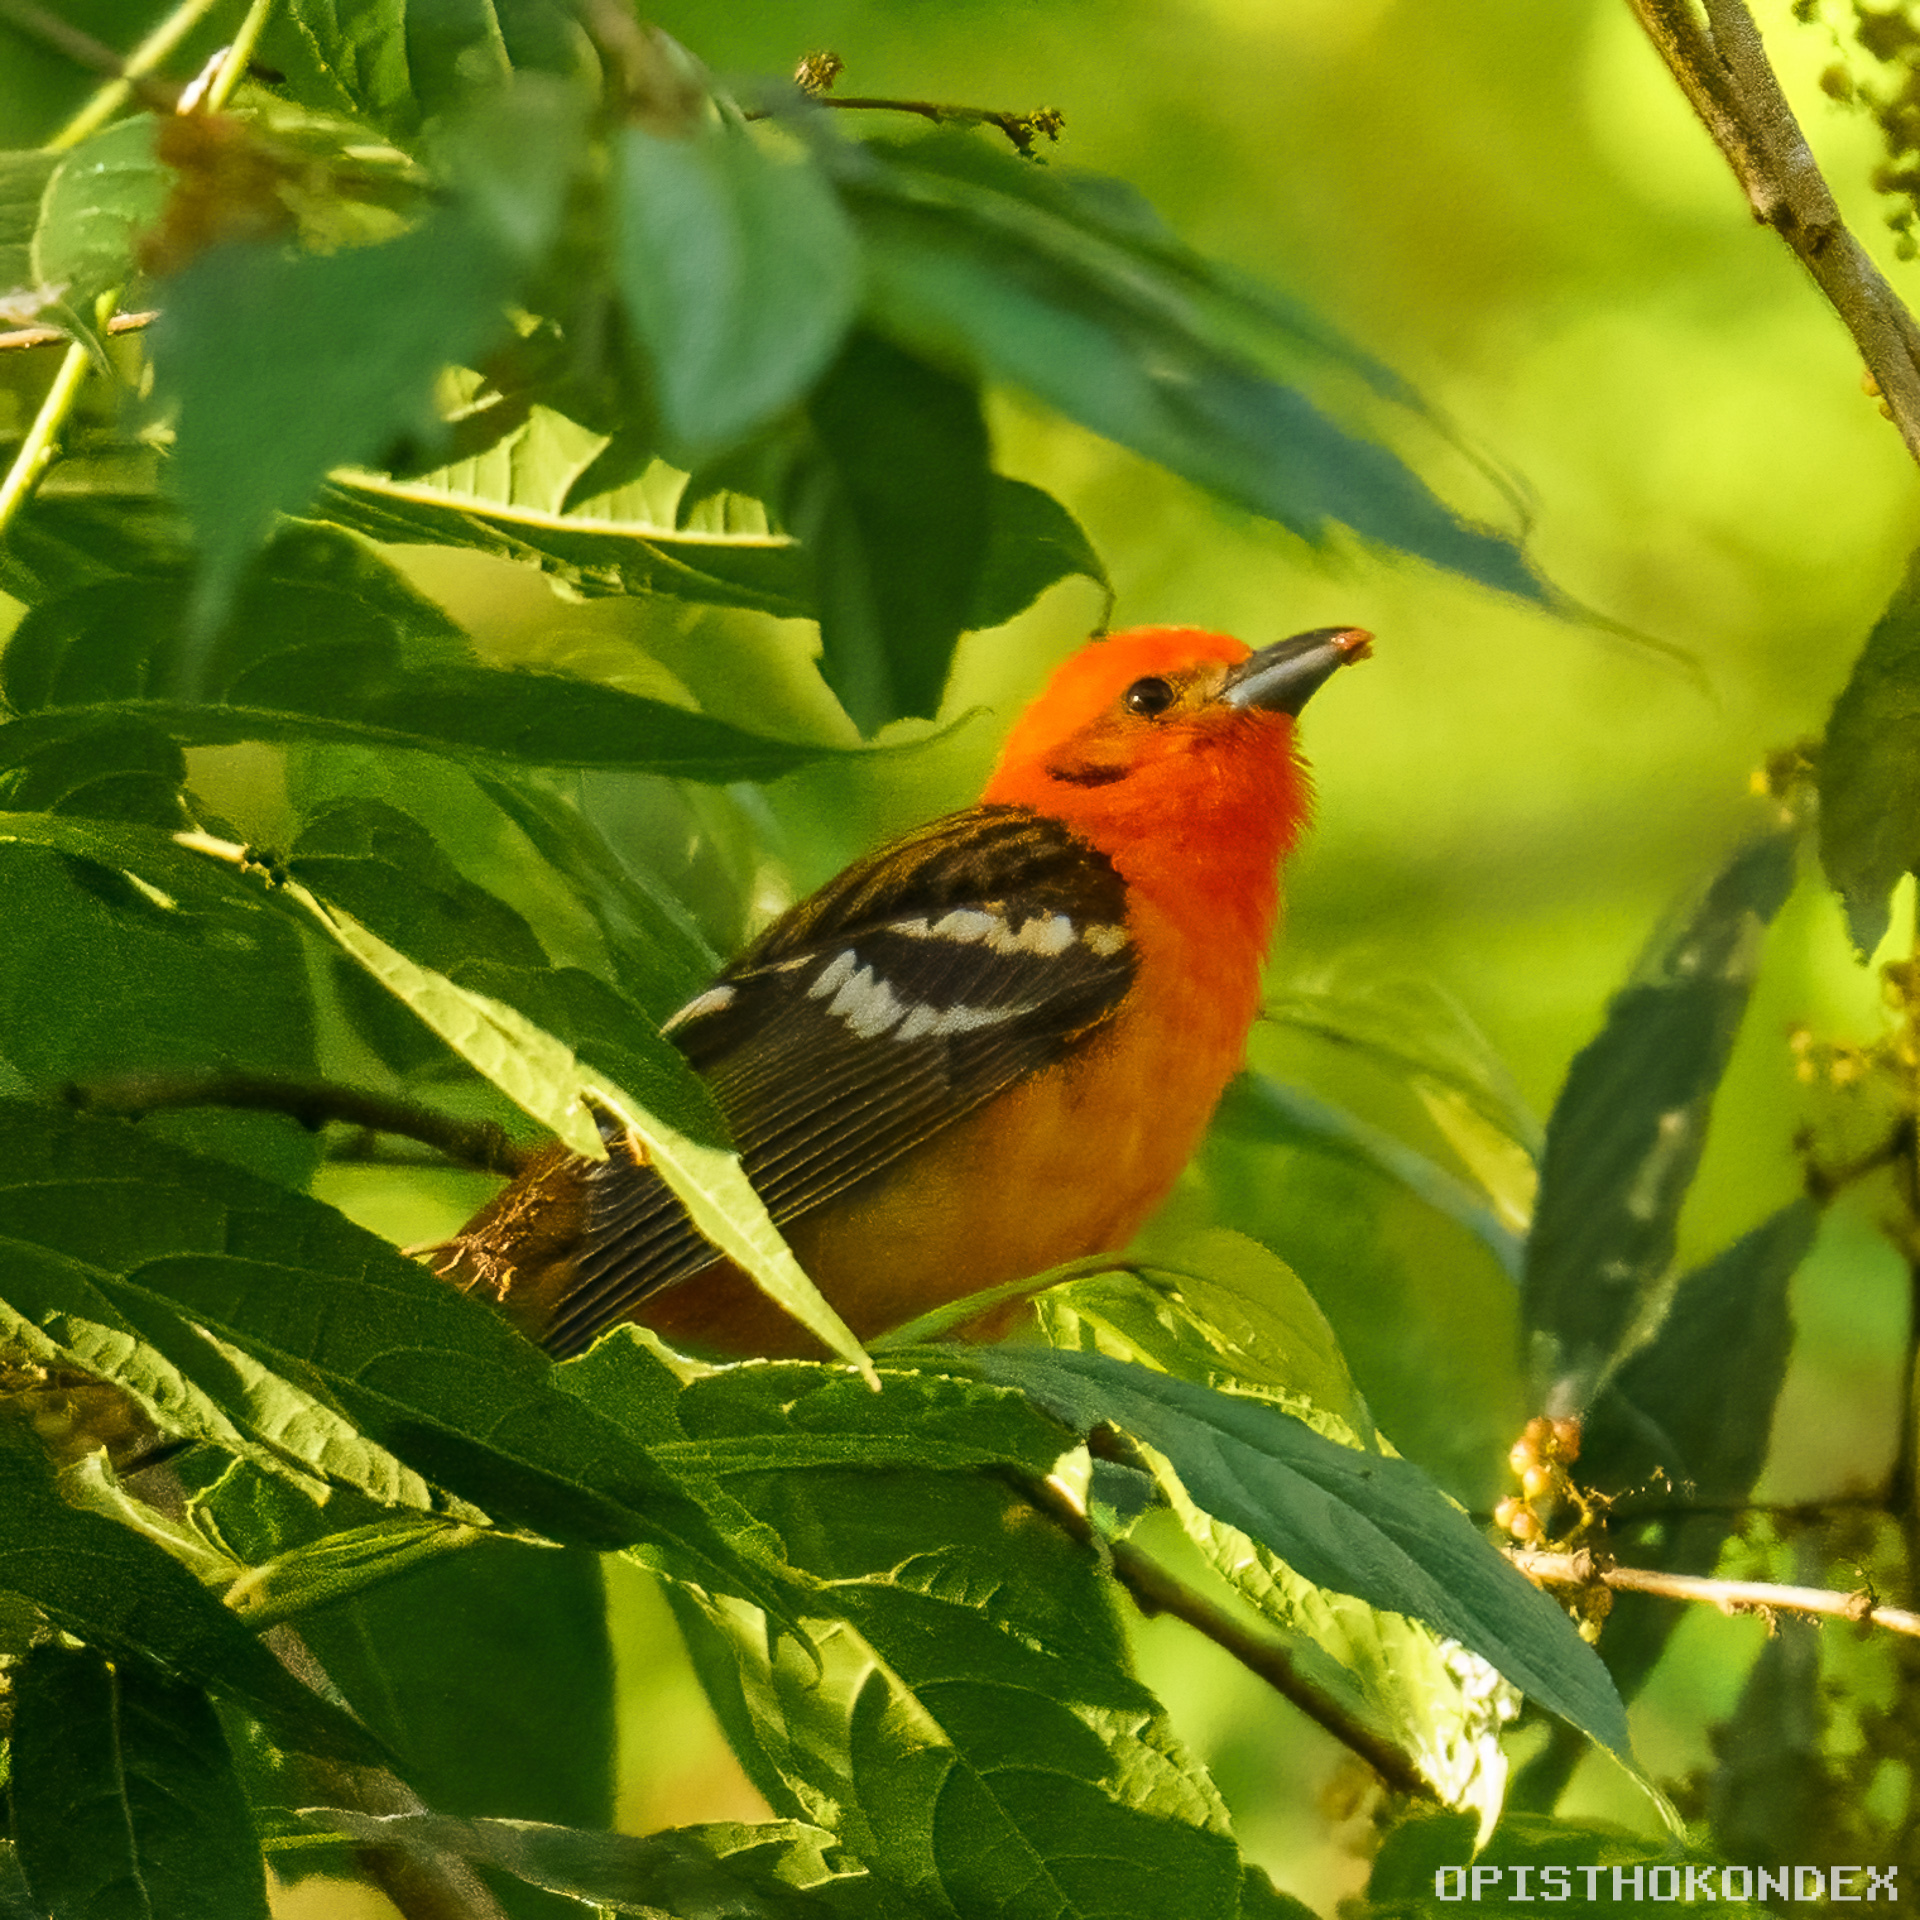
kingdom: Animalia
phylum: Chordata
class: Aves
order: Passeriformes
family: Cardinalidae
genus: Piranga
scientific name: Piranga bidentata
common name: Flame-colored tanager
